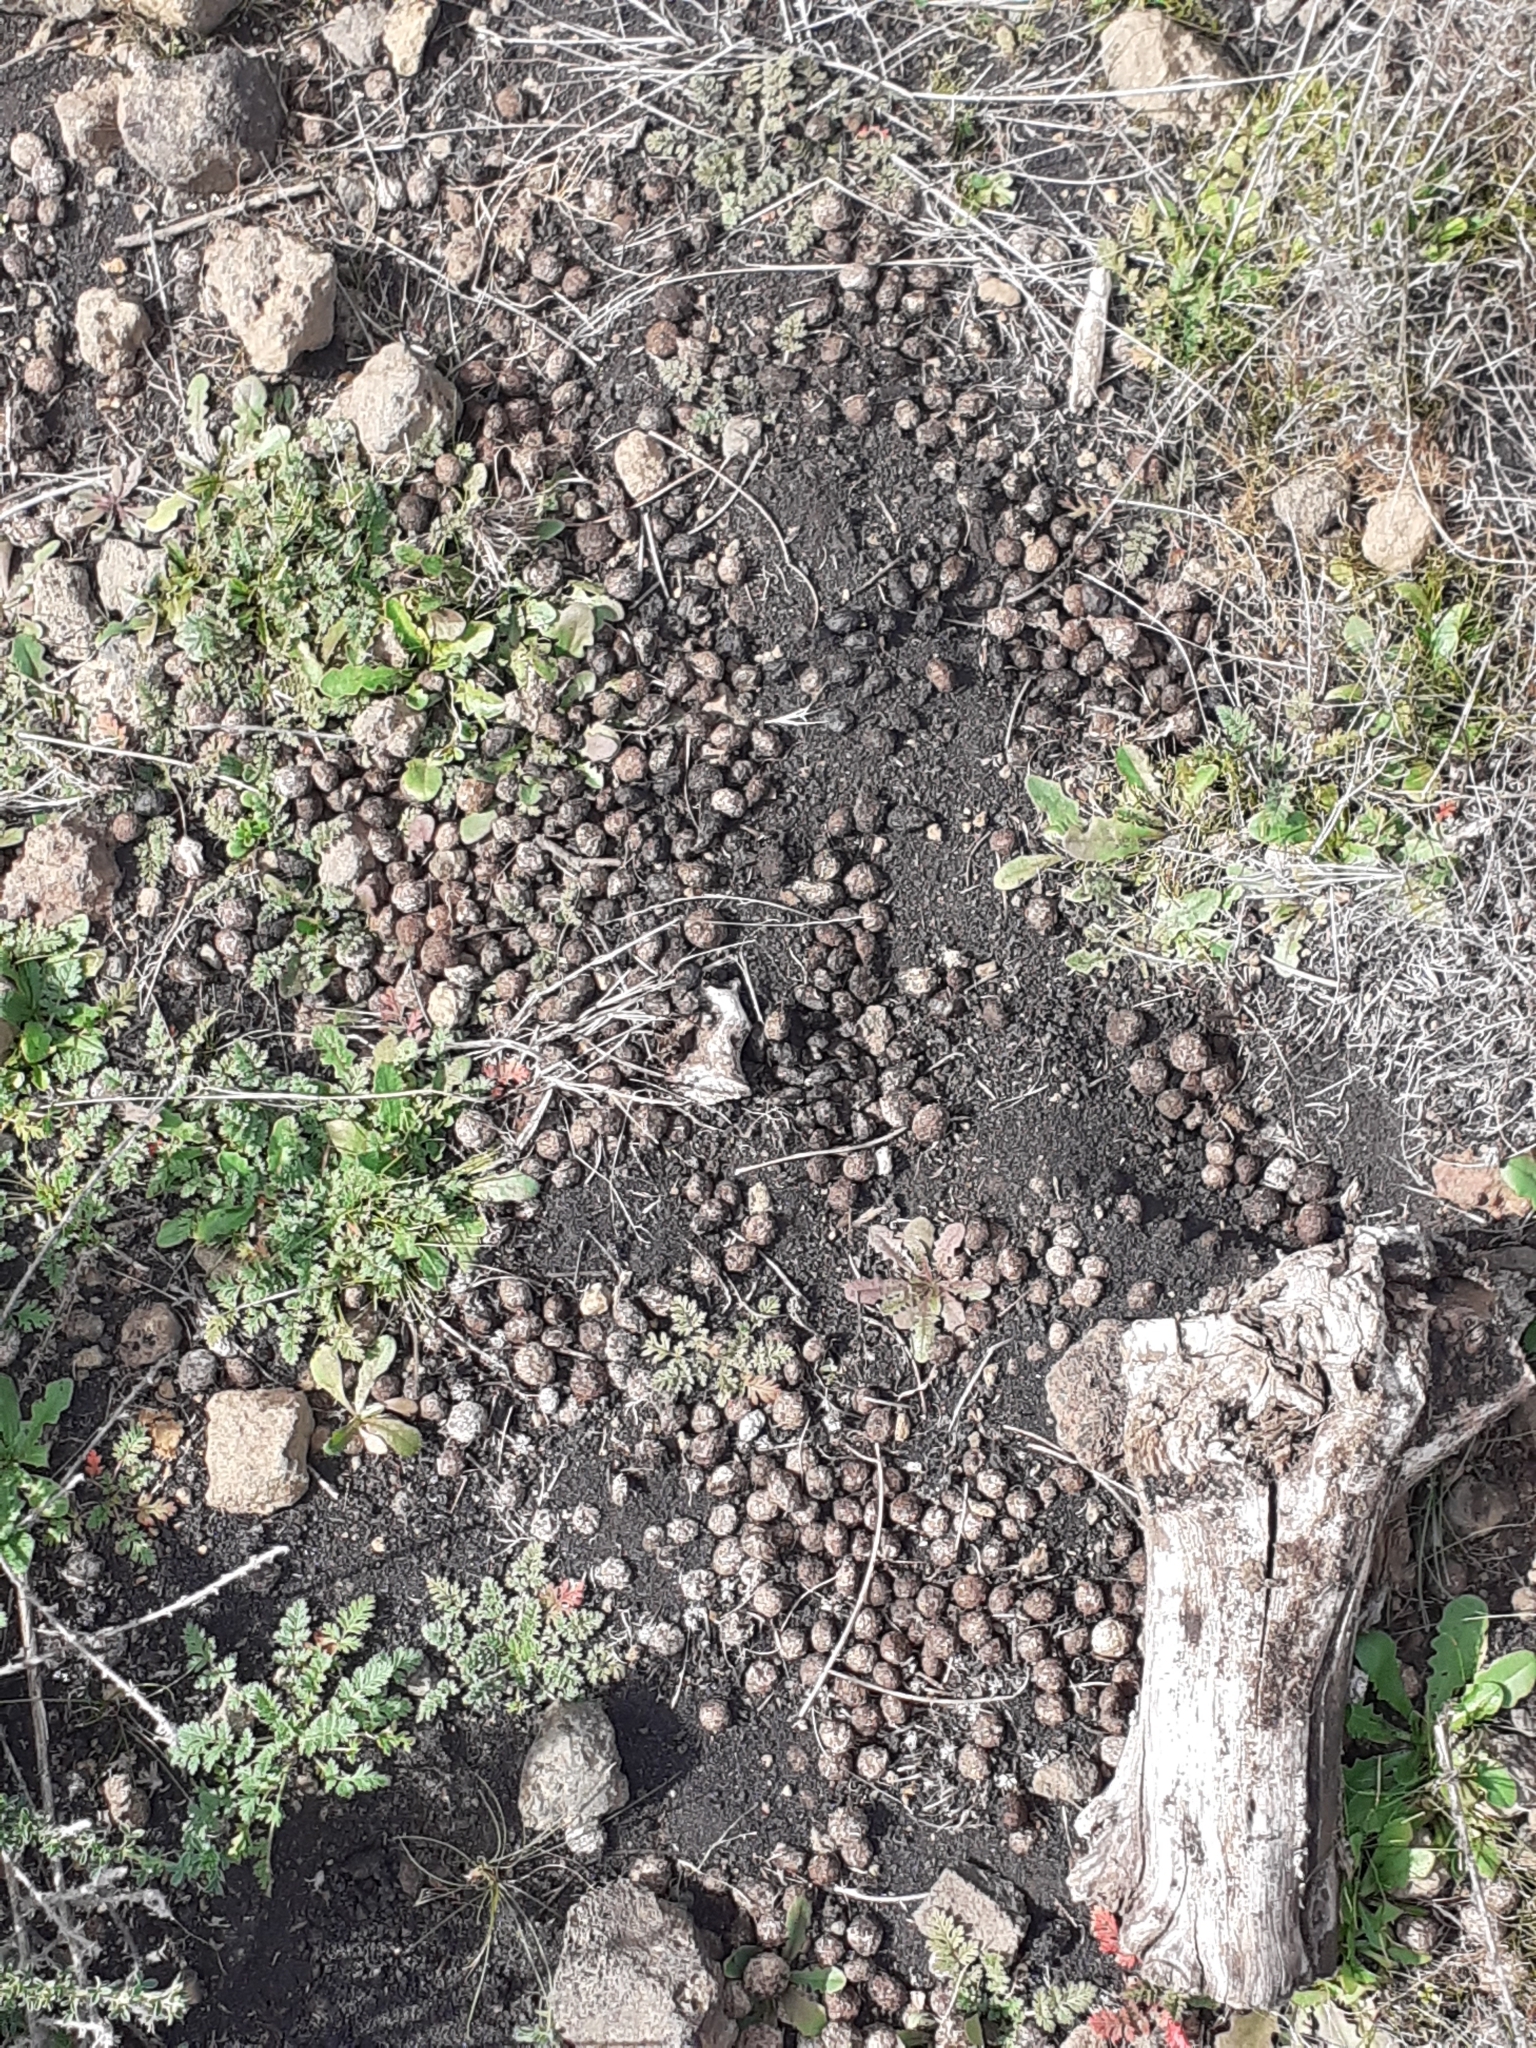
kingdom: Animalia
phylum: Chordata
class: Mammalia
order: Lagomorpha
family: Leporidae
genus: Oryctolagus
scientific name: Oryctolagus cuniculus
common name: European rabbit
